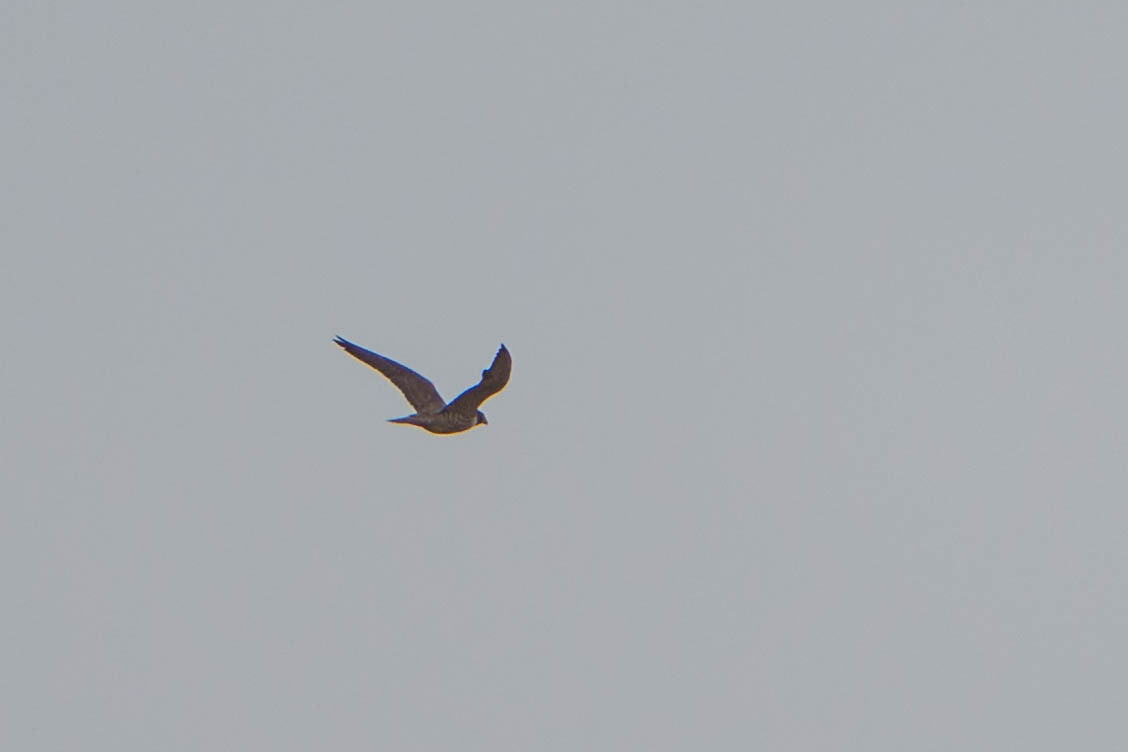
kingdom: Animalia
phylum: Chordata
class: Aves
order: Falconiformes
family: Falconidae
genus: Falco
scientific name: Falco peregrinus
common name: Peregrine falcon
